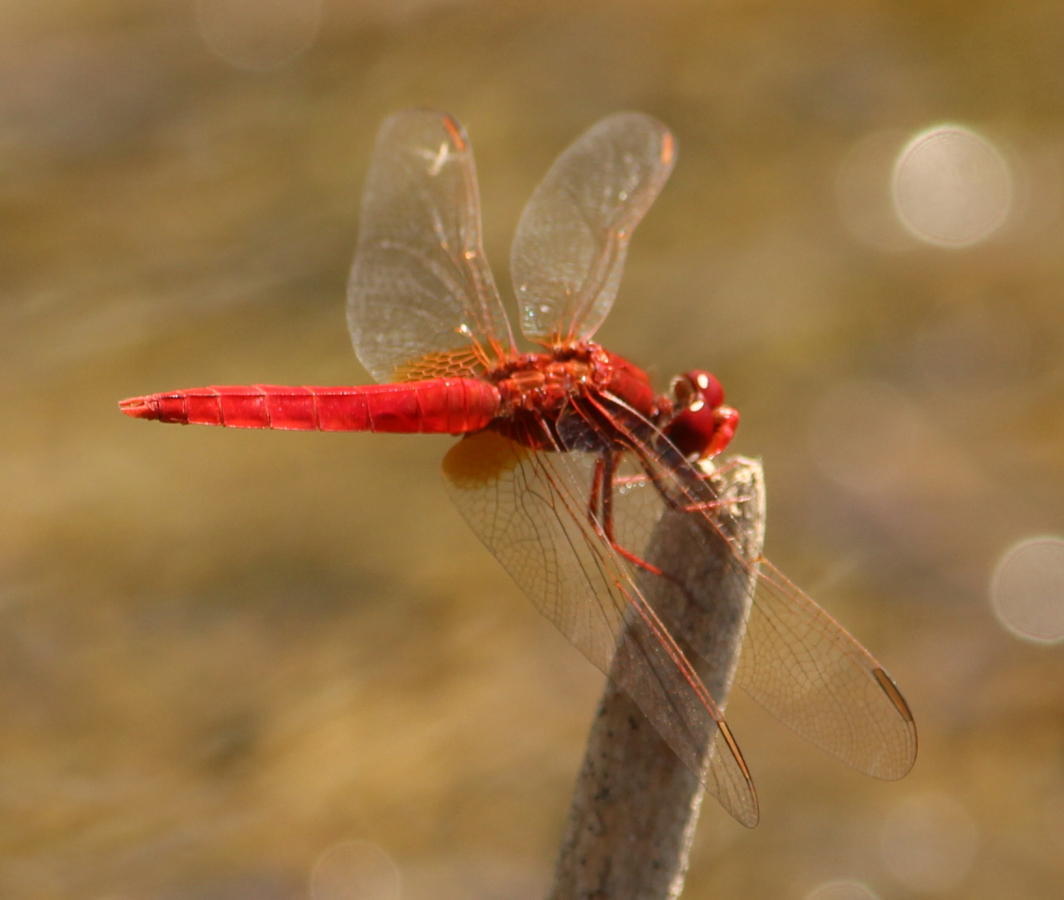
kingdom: Animalia
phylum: Arthropoda
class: Insecta
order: Odonata
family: Libellulidae
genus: Crocothemis
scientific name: Crocothemis erythraea
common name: Scarlet dragonfly
